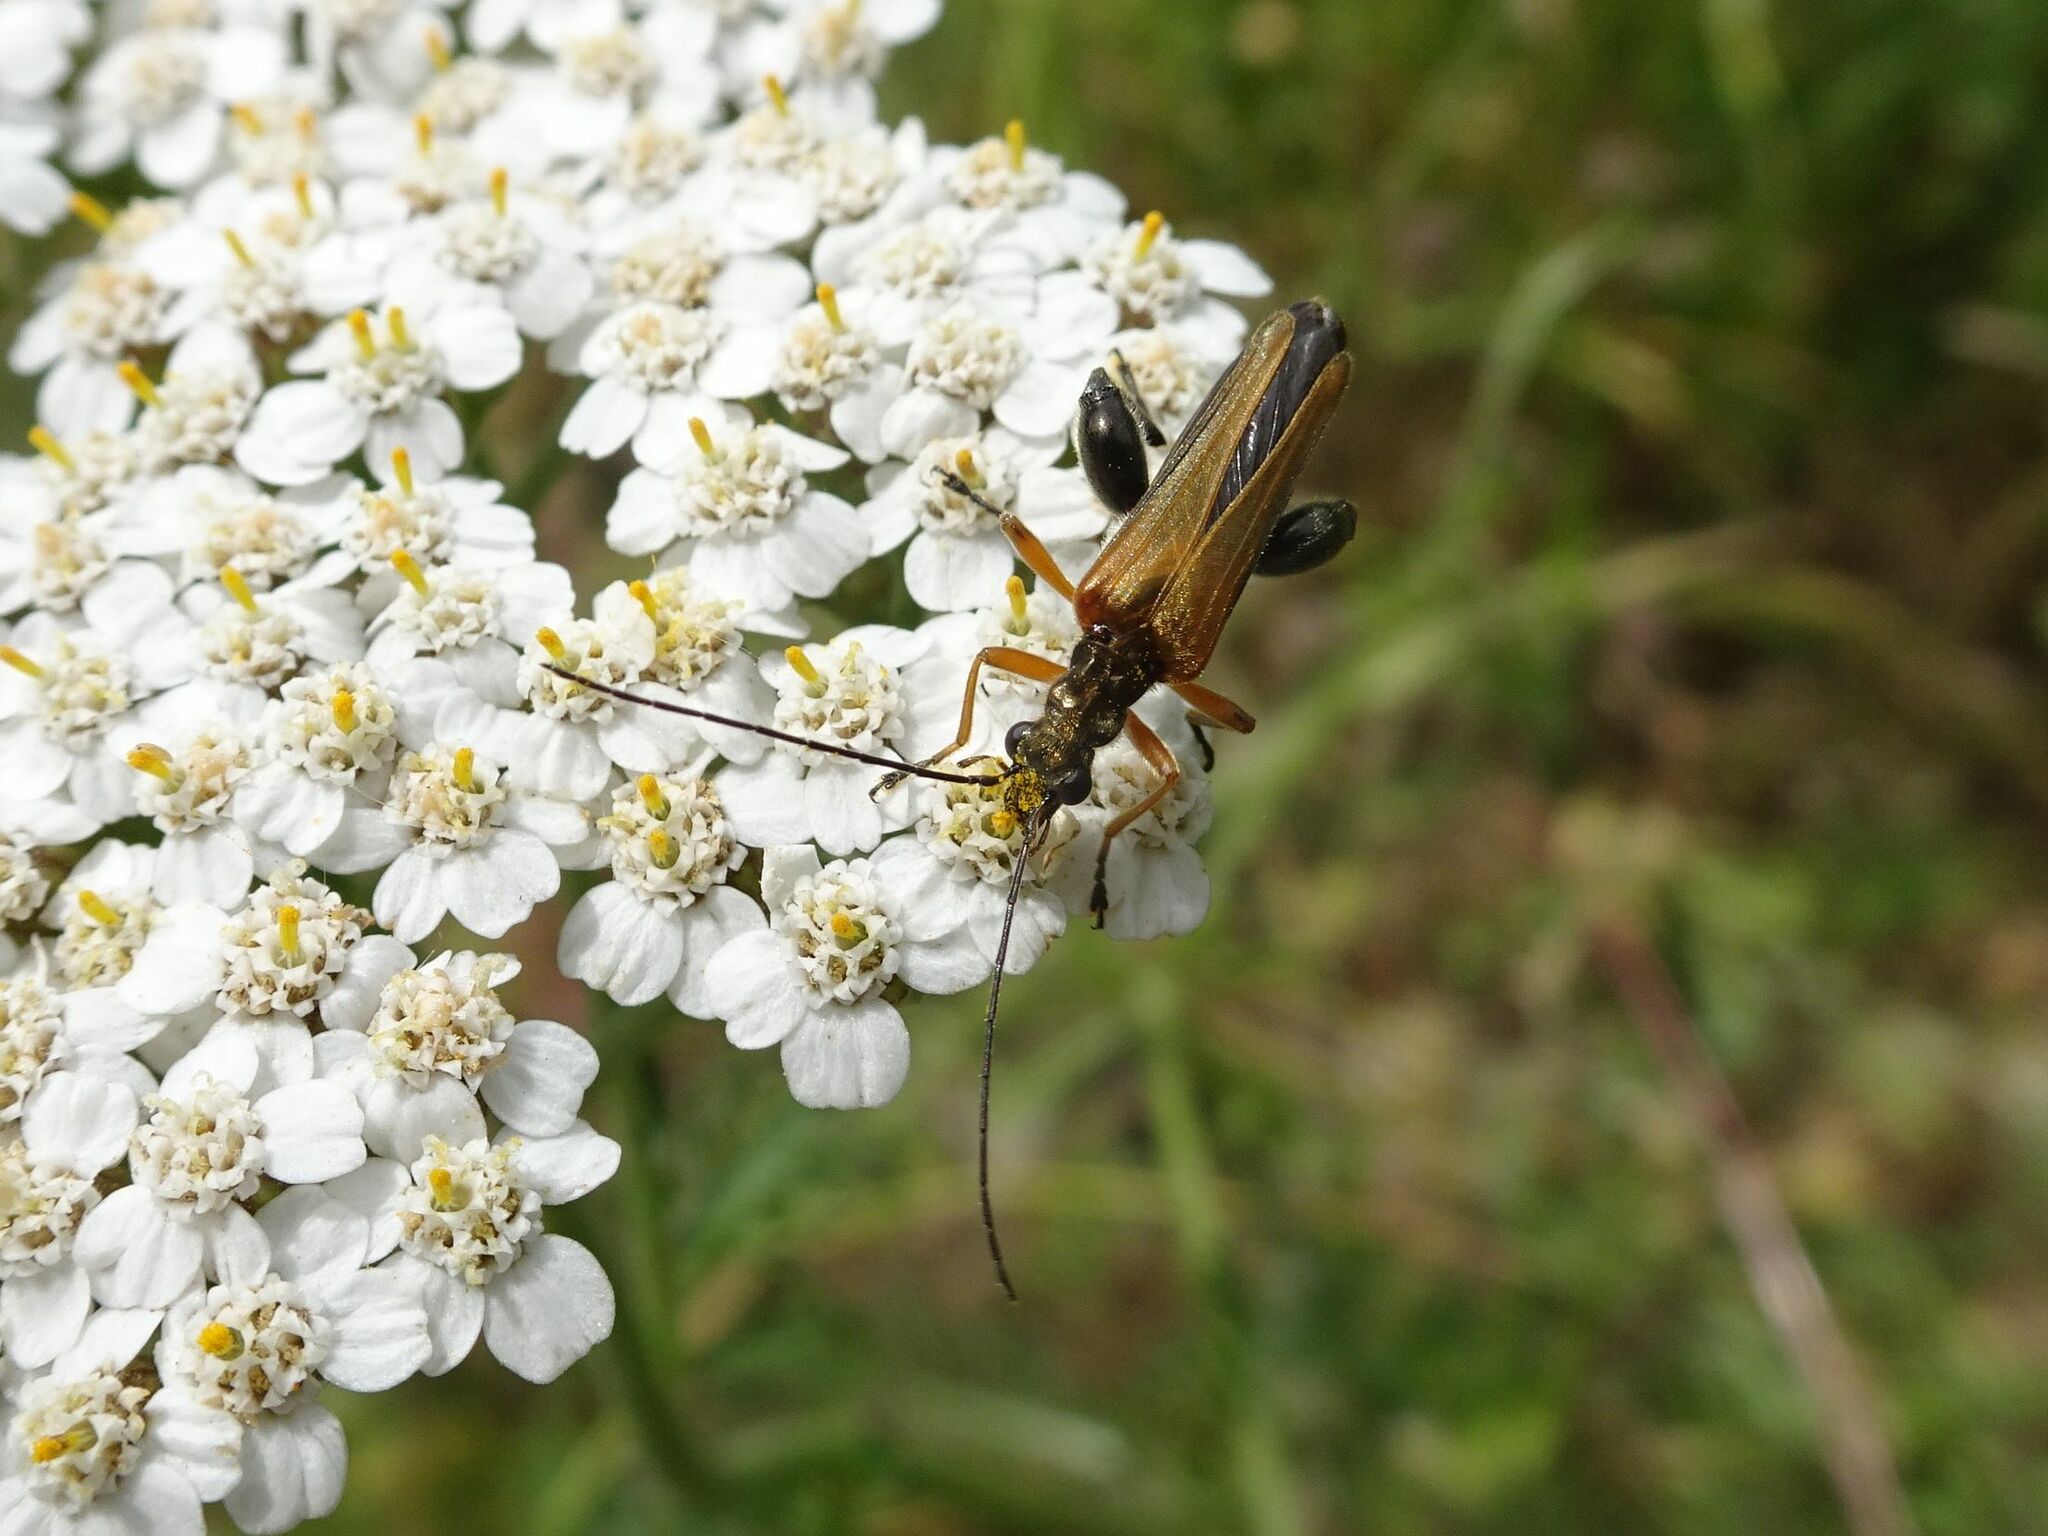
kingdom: Animalia
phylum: Arthropoda
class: Insecta
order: Coleoptera
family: Oedemeridae
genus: Oedemera
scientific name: Oedemera podagrariae
